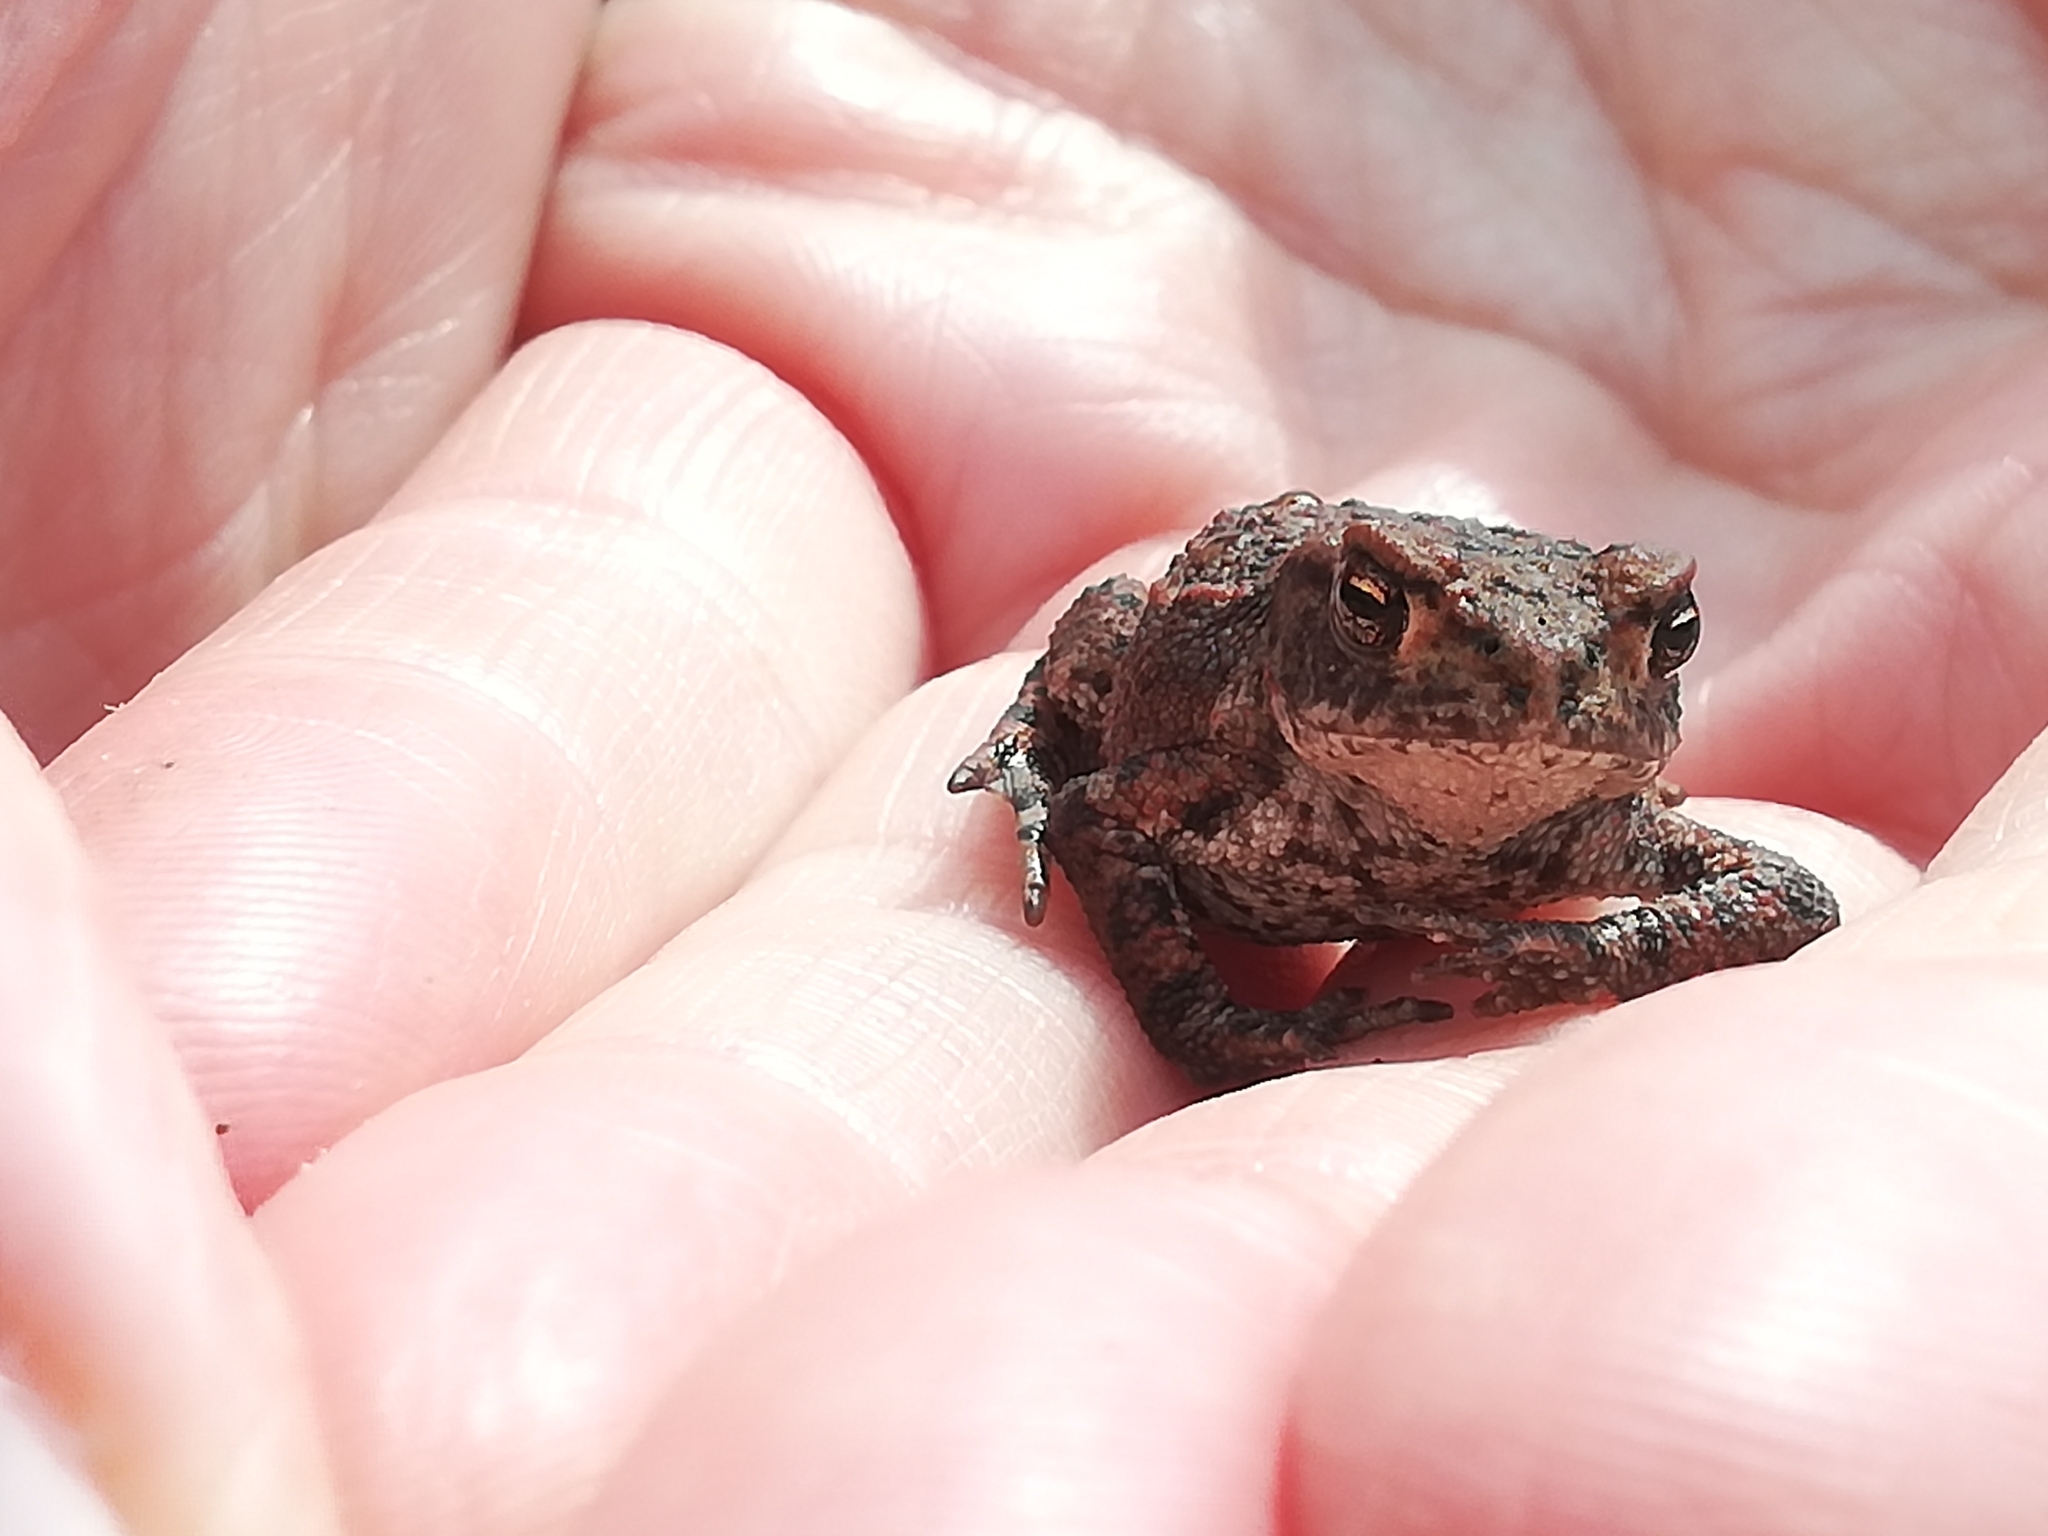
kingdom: Animalia
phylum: Chordata
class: Amphibia
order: Anura
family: Bufonidae
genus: Bufo
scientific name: Bufo bufo
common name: Common toad
